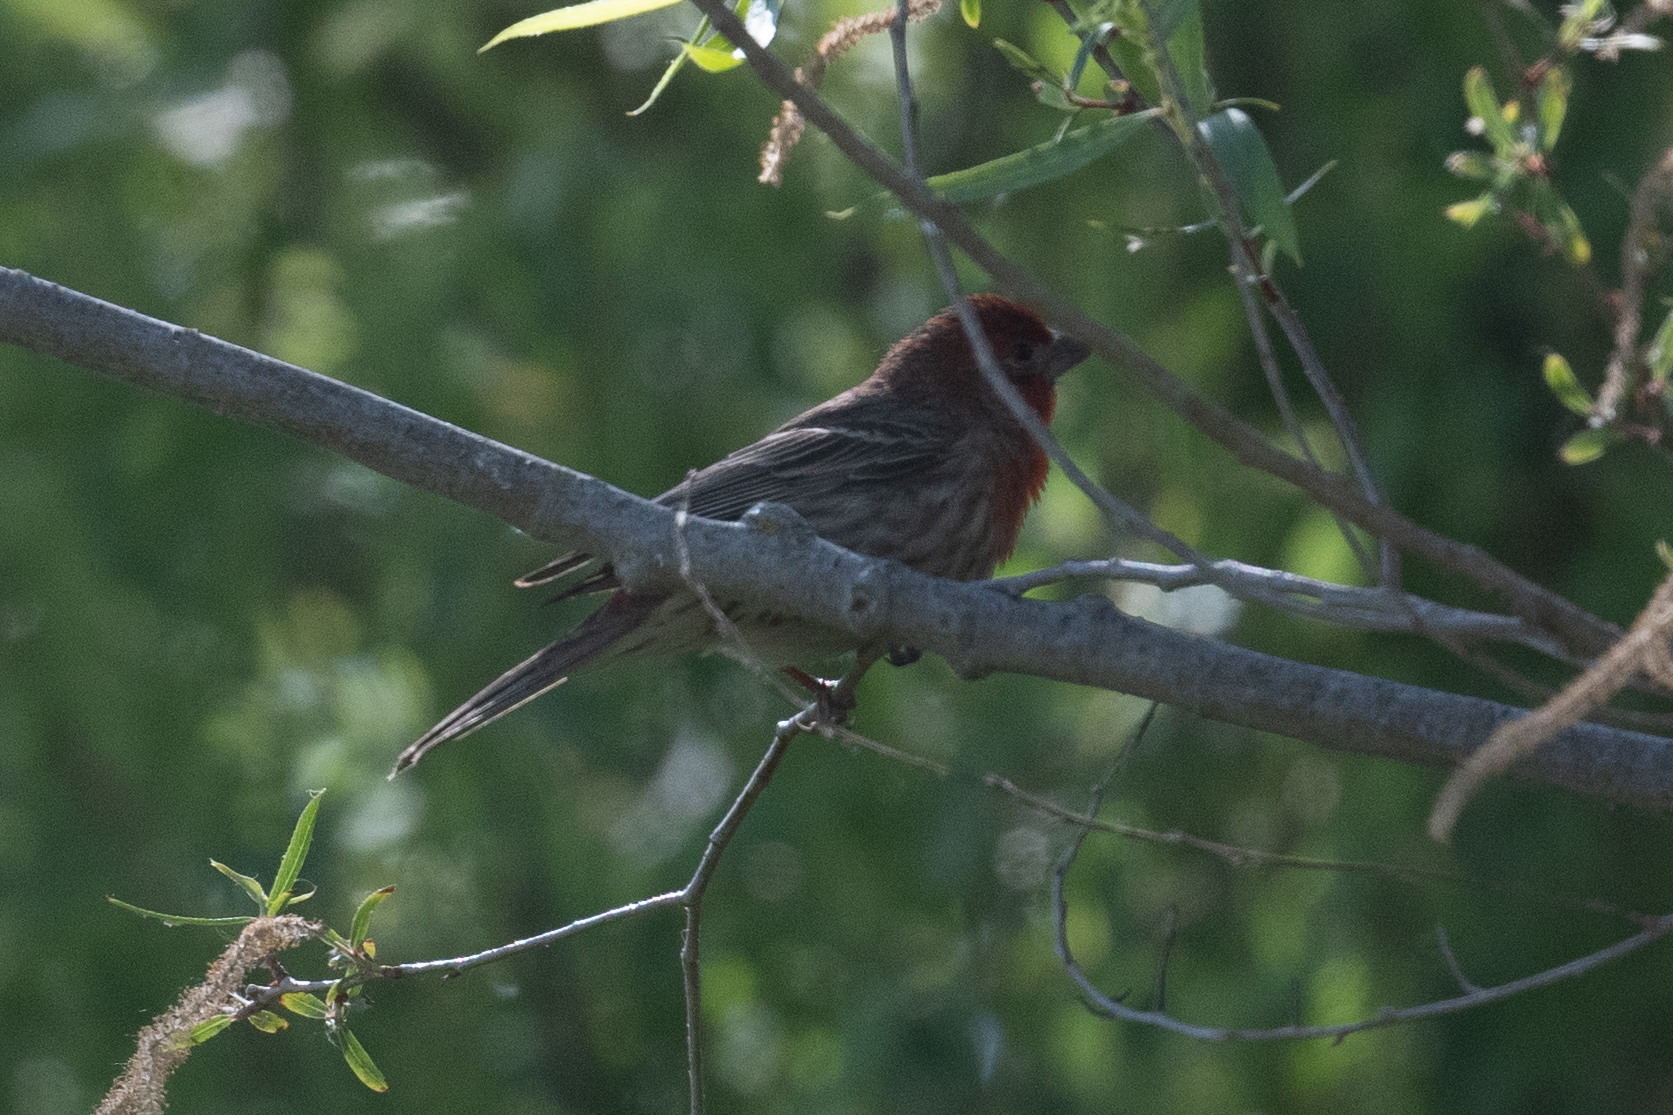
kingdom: Animalia
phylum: Chordata
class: Aves
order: Passeriformes
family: Fringillidae
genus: Haemorhous
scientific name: Haemorhous mexicanus
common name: House finch
